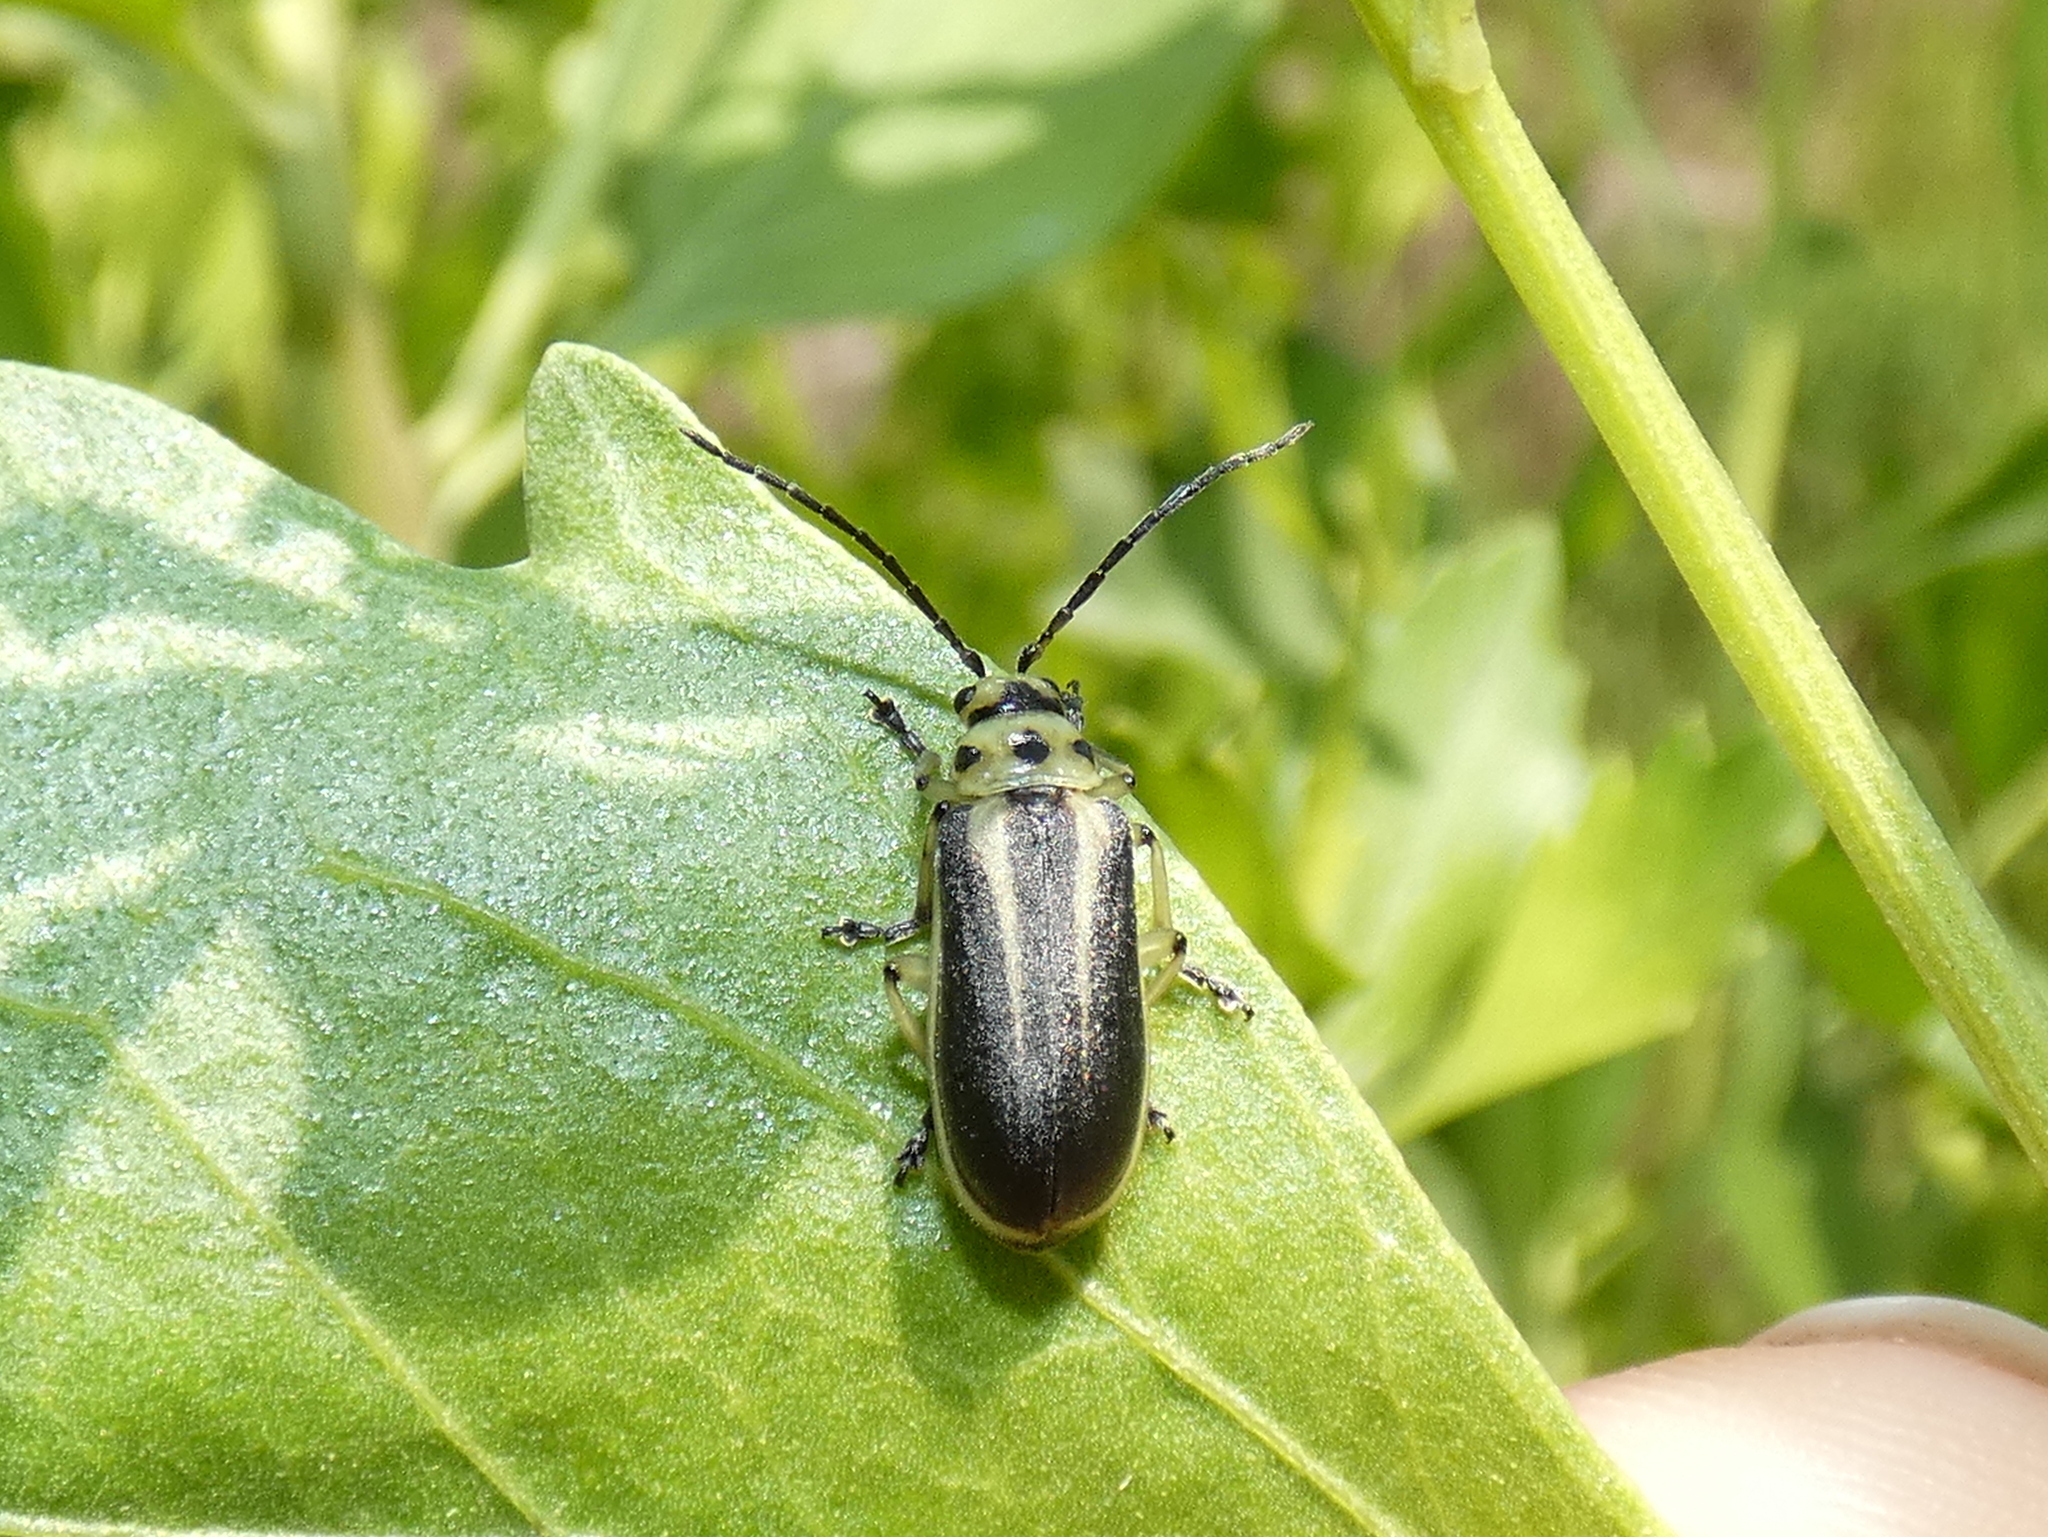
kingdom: Animalia
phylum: Arthropoda
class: Insecta
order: Coleoptera
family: Chrysomelidae
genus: Trirhabda
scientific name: Trirhabda bacharidis
